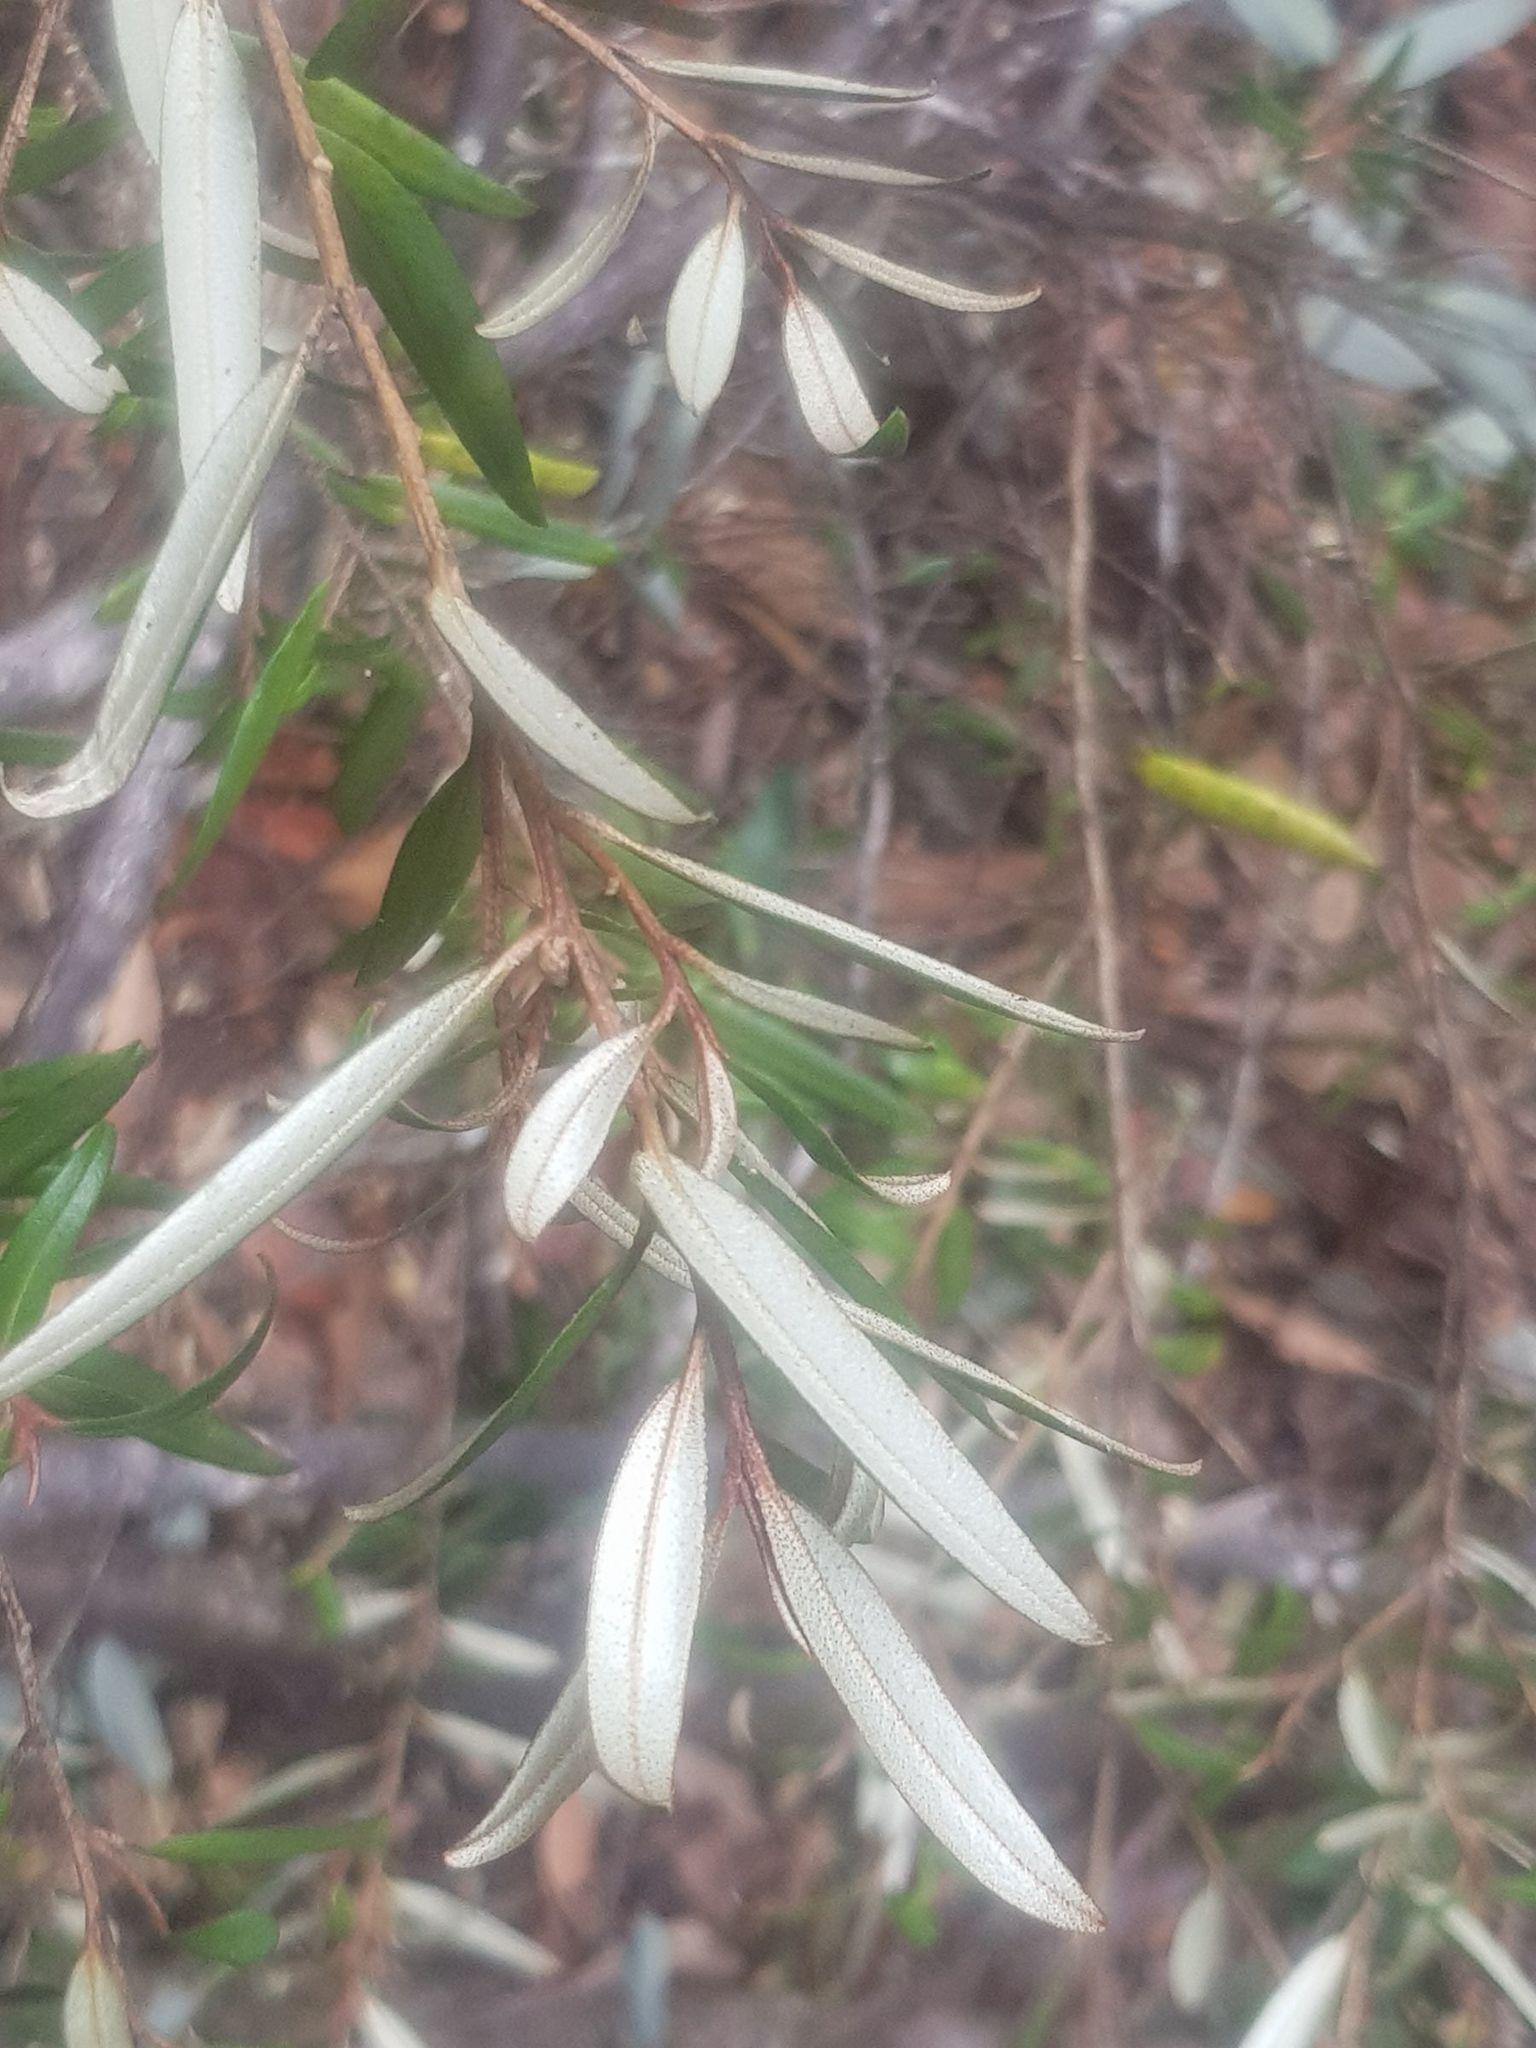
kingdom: Plantae
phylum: Tracheophyta
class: Magnoliopsida
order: Sapindales
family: Rutaceae
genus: Nematolepis
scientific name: Nematolepis squamea
